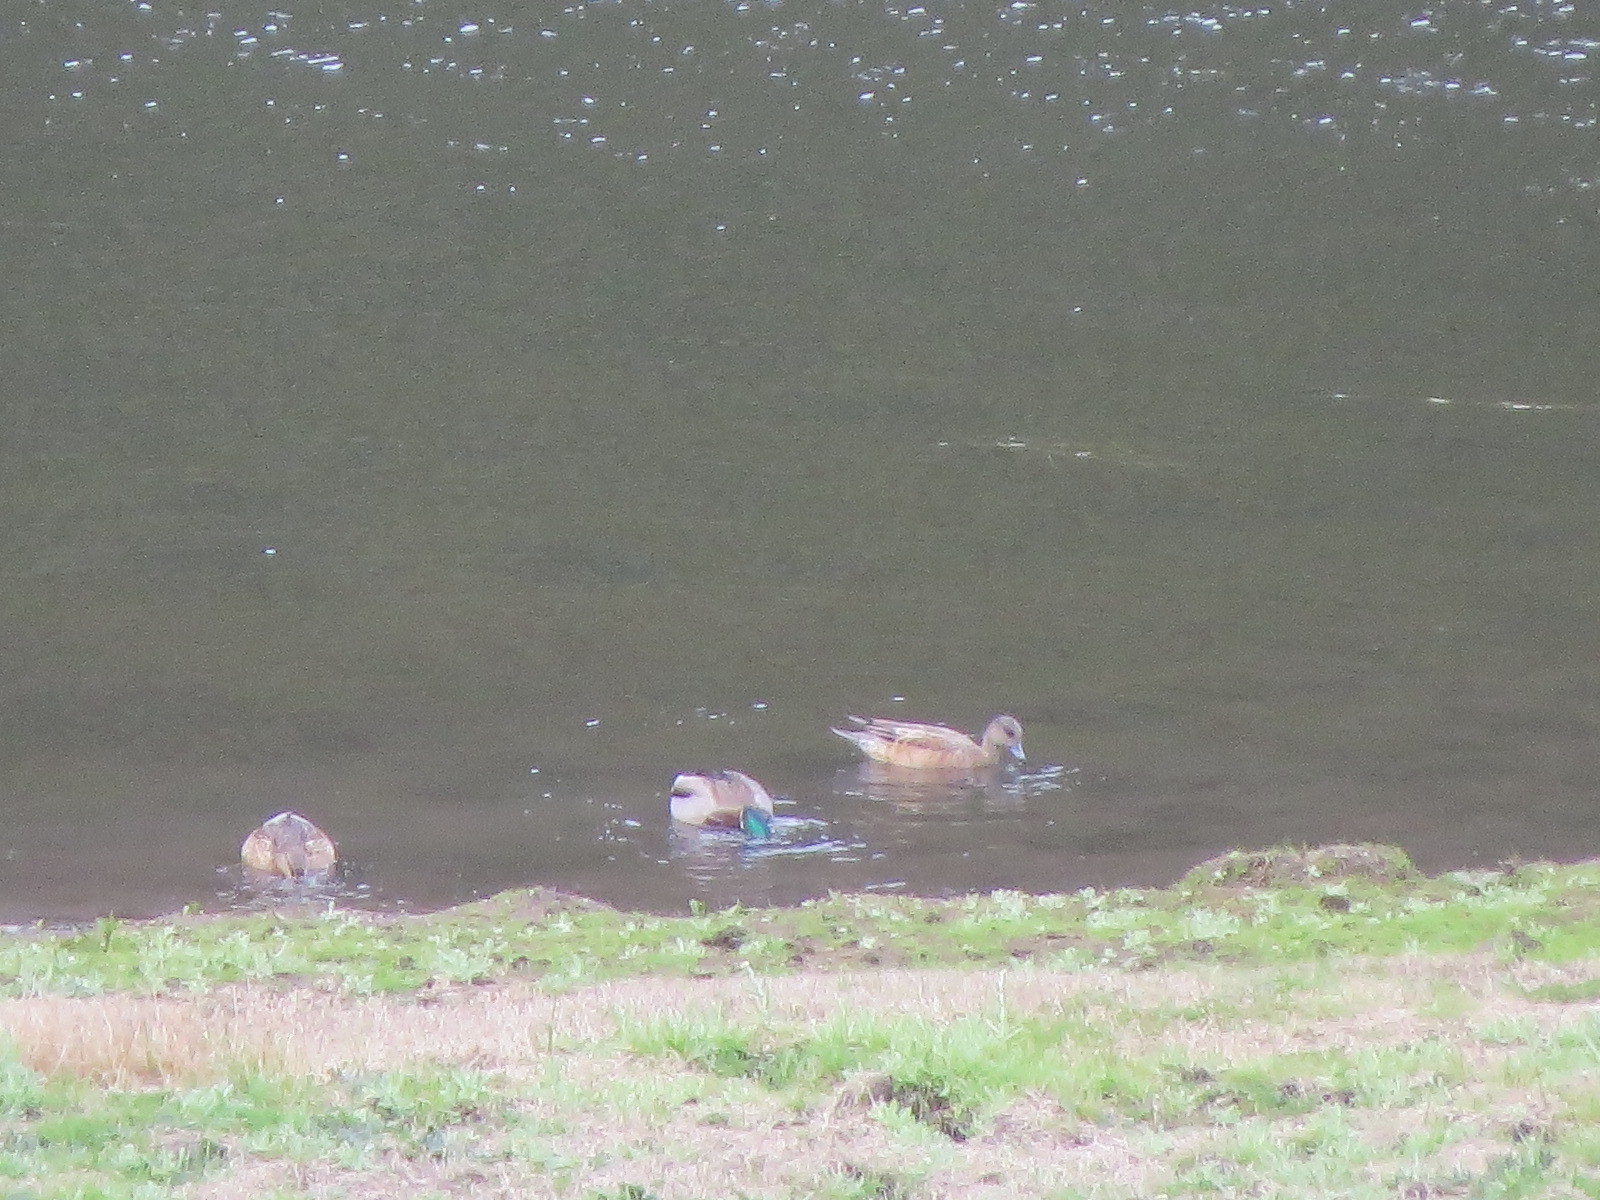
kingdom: Animalia
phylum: Chordata
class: Aves
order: Anseriformes
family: Anatidae
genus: Mareca
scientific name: Mareca americana
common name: American wigeon
